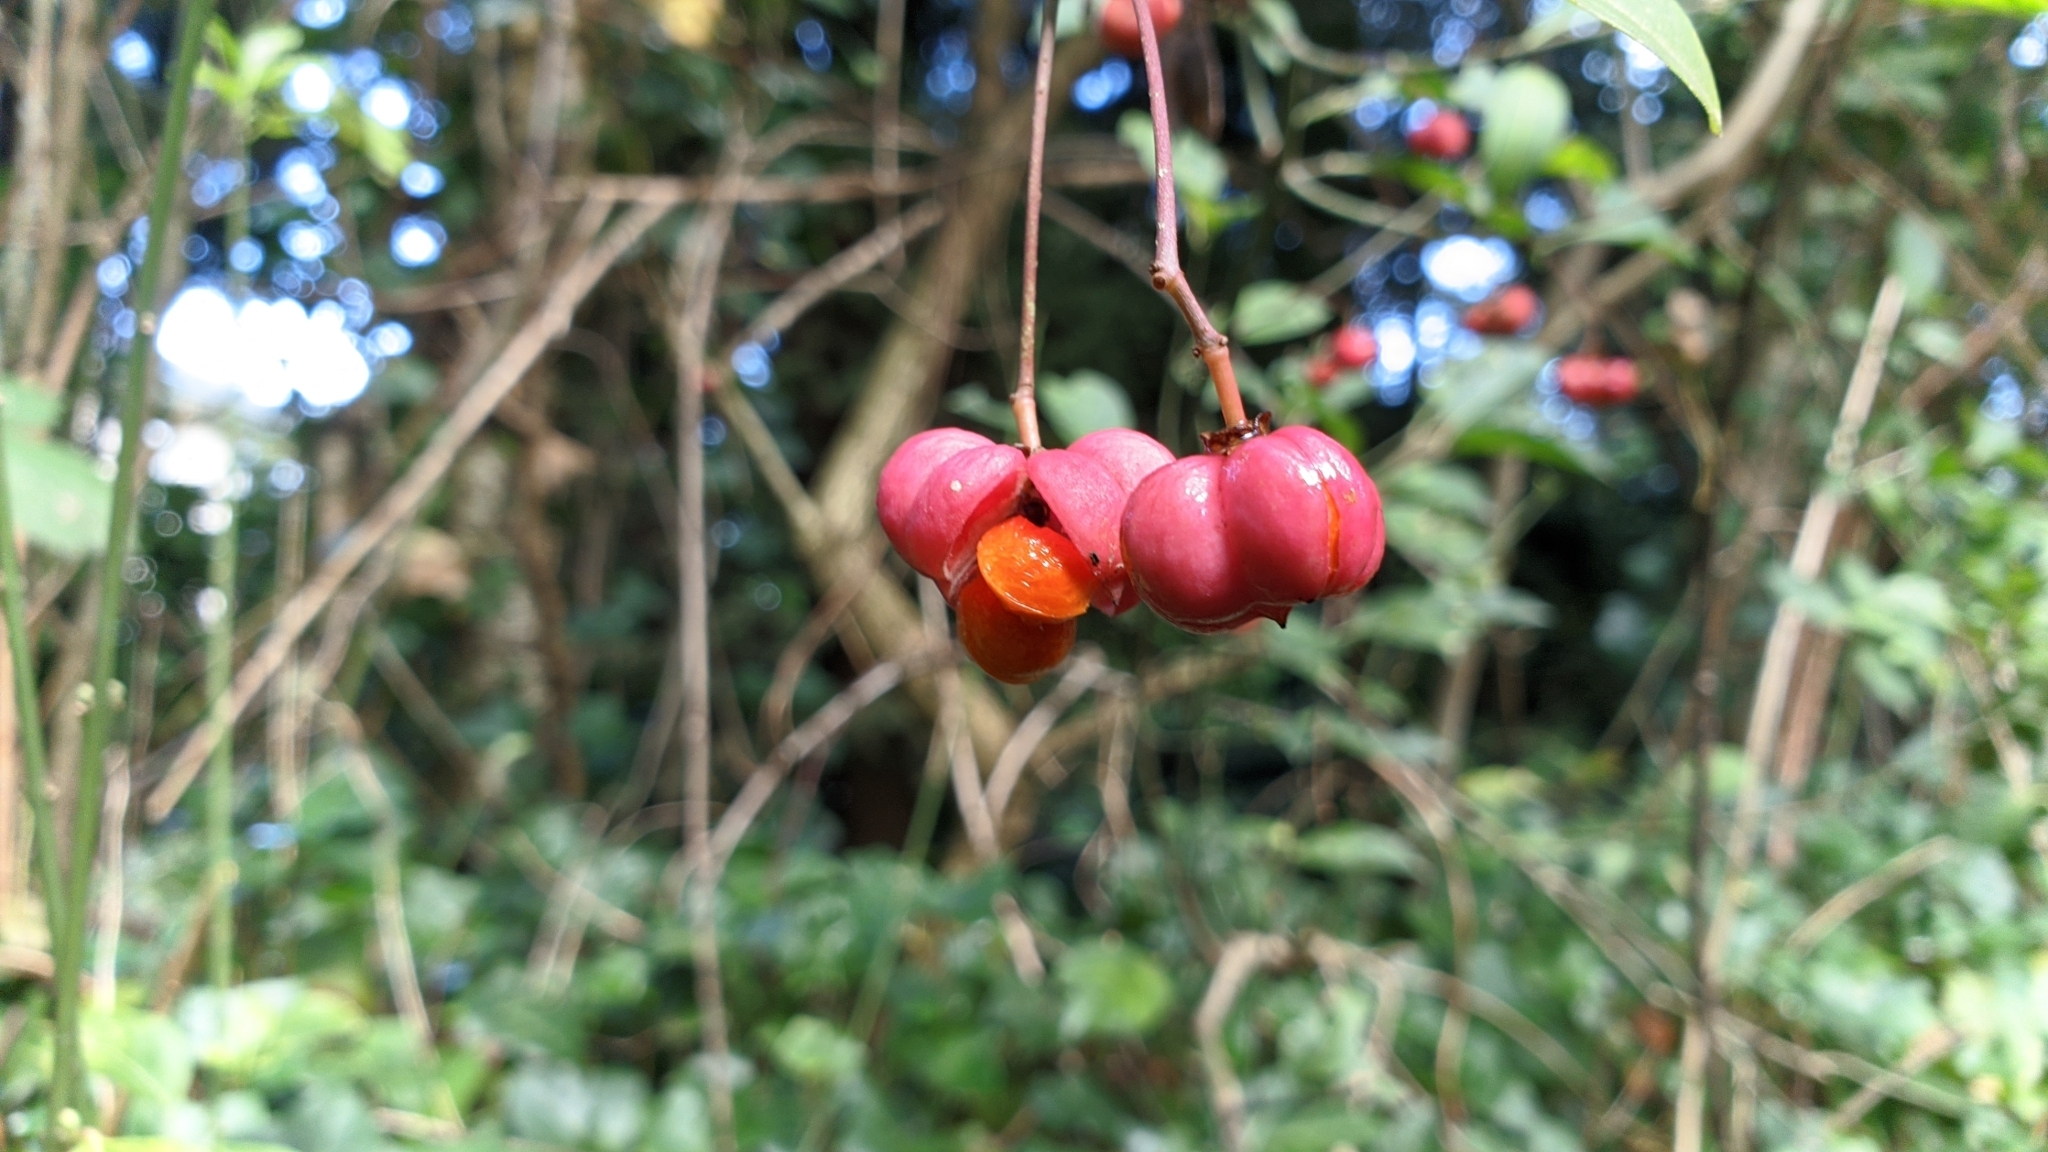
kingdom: Plantae
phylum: Tracheophyta
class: Magnoliopsida
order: Celastrales
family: Celastraceae
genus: Euonymus
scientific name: Euonymus europaeus
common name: Spindle
